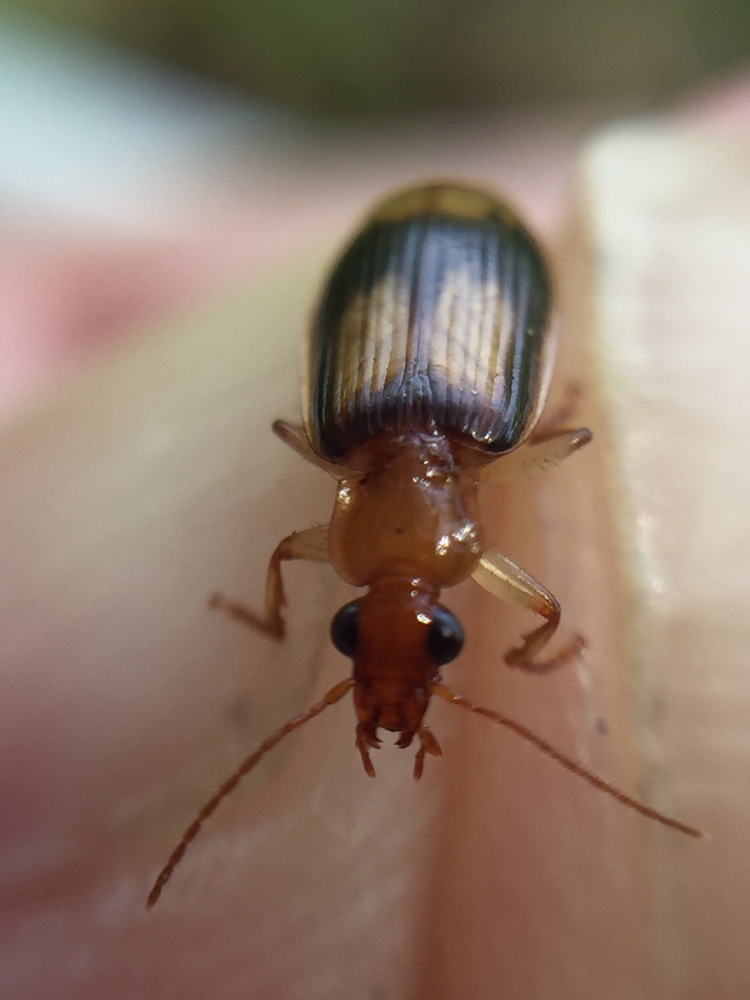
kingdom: Animalia
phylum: Arthropoda
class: Insecta
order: Coleoptera
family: Carabidae
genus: Trigonothops
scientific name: Trigonothops pacificus
